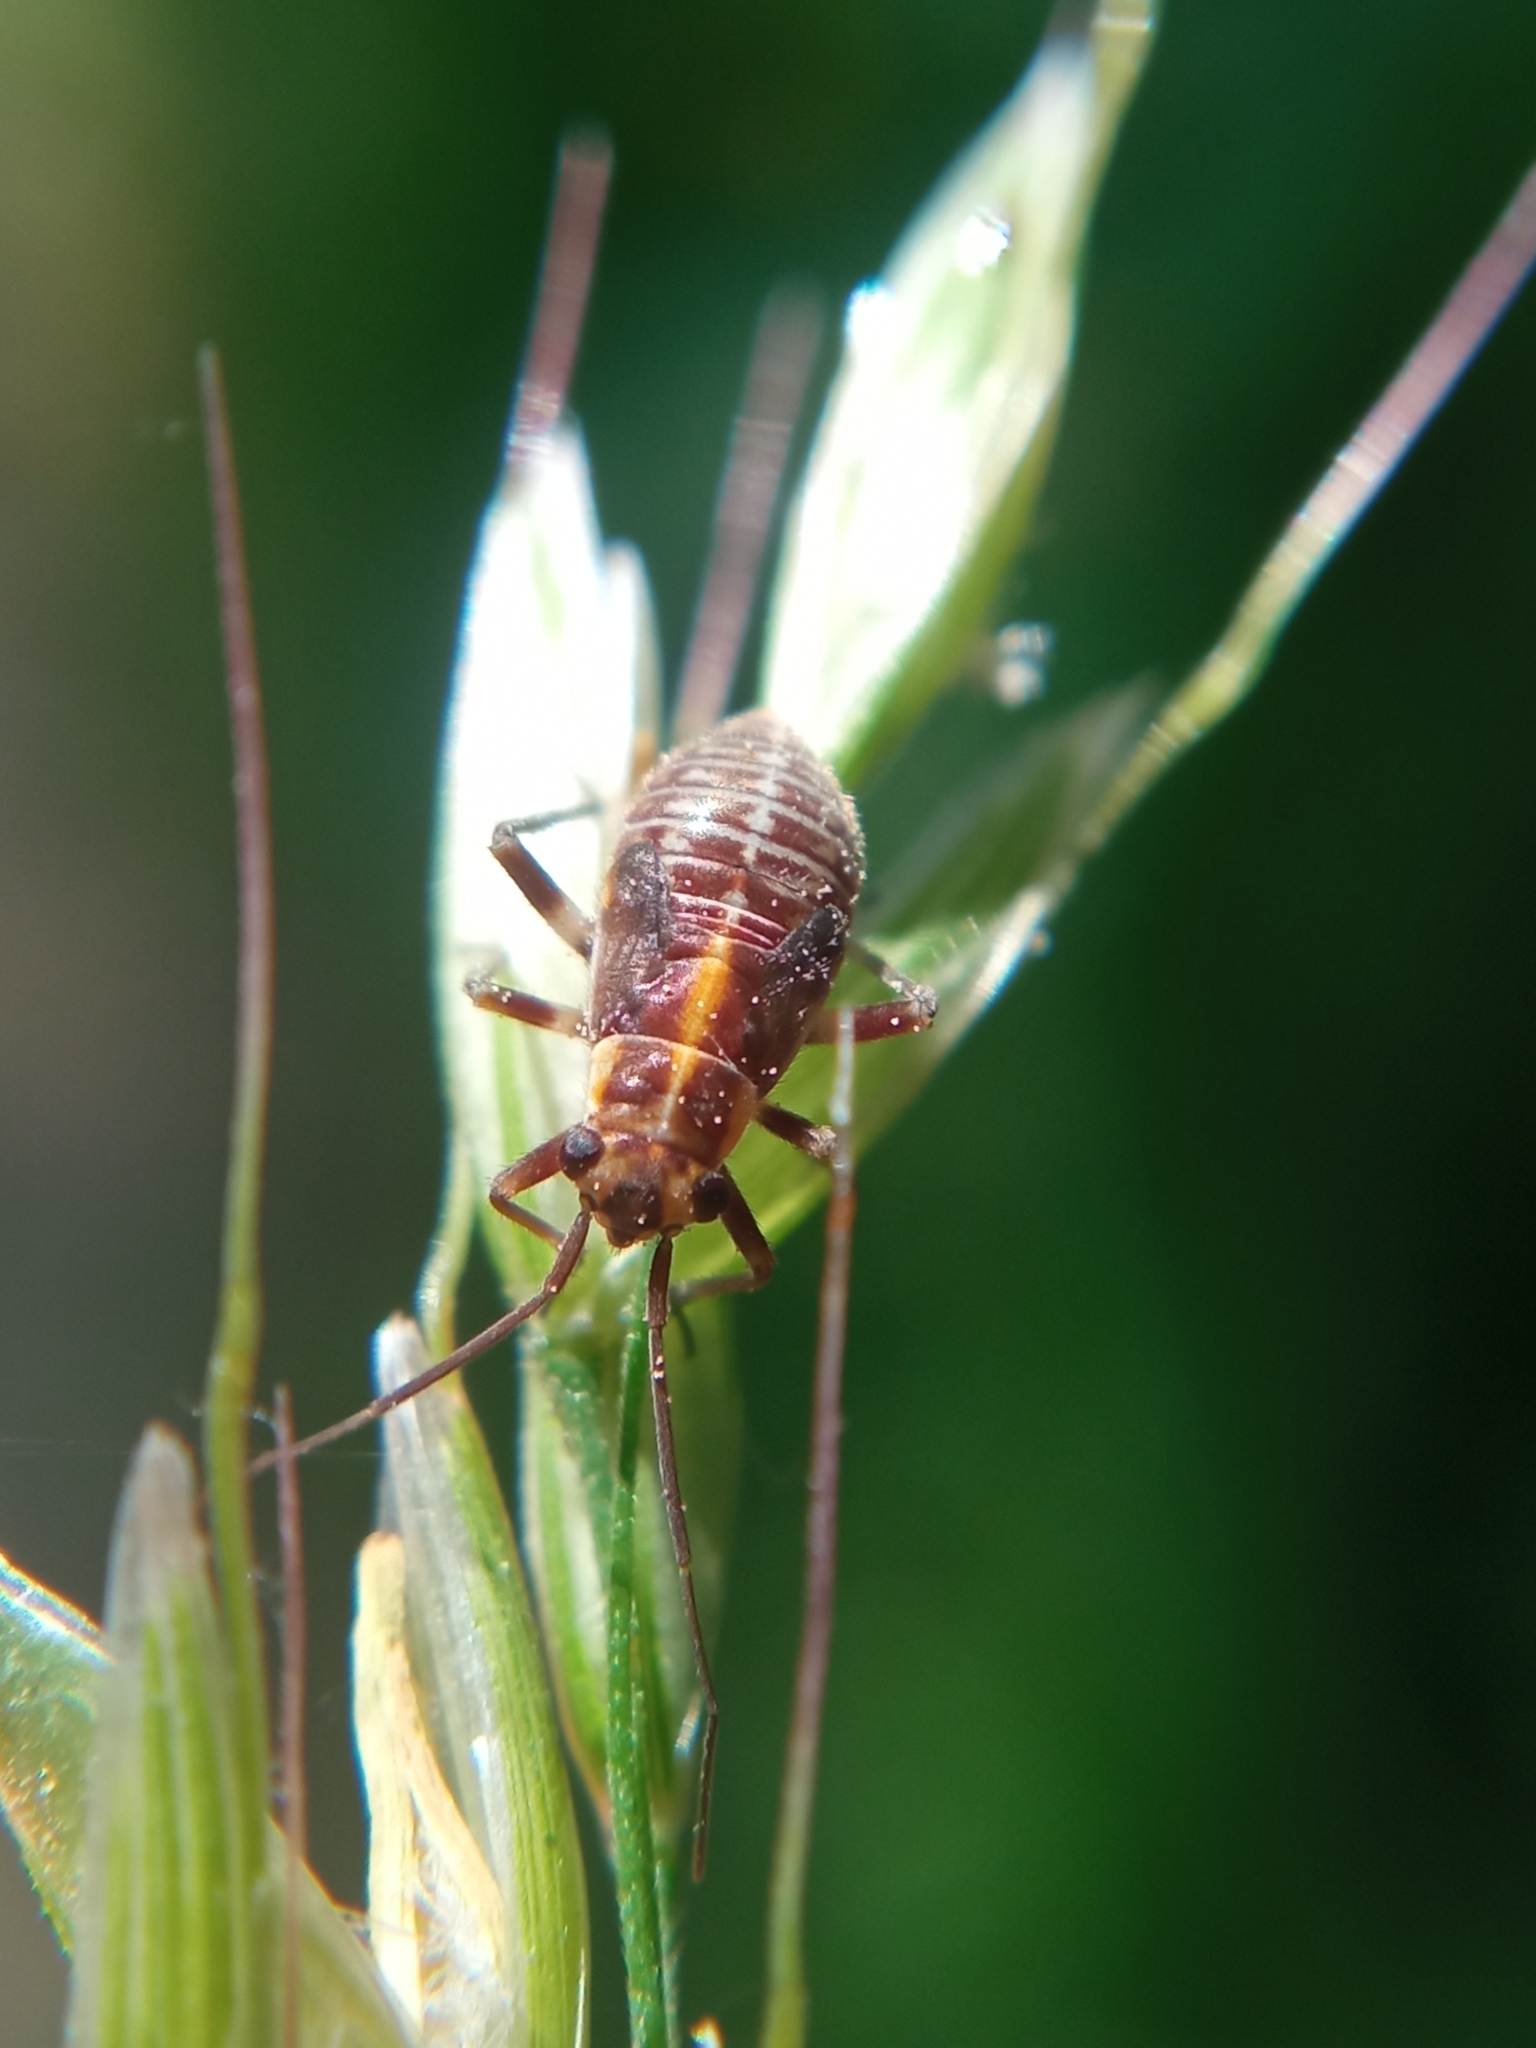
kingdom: Animalia
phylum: Arthropoda
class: Insecta
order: Hemiptera
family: Miridae
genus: Capsodes
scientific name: Capsodes flavomarginatus
